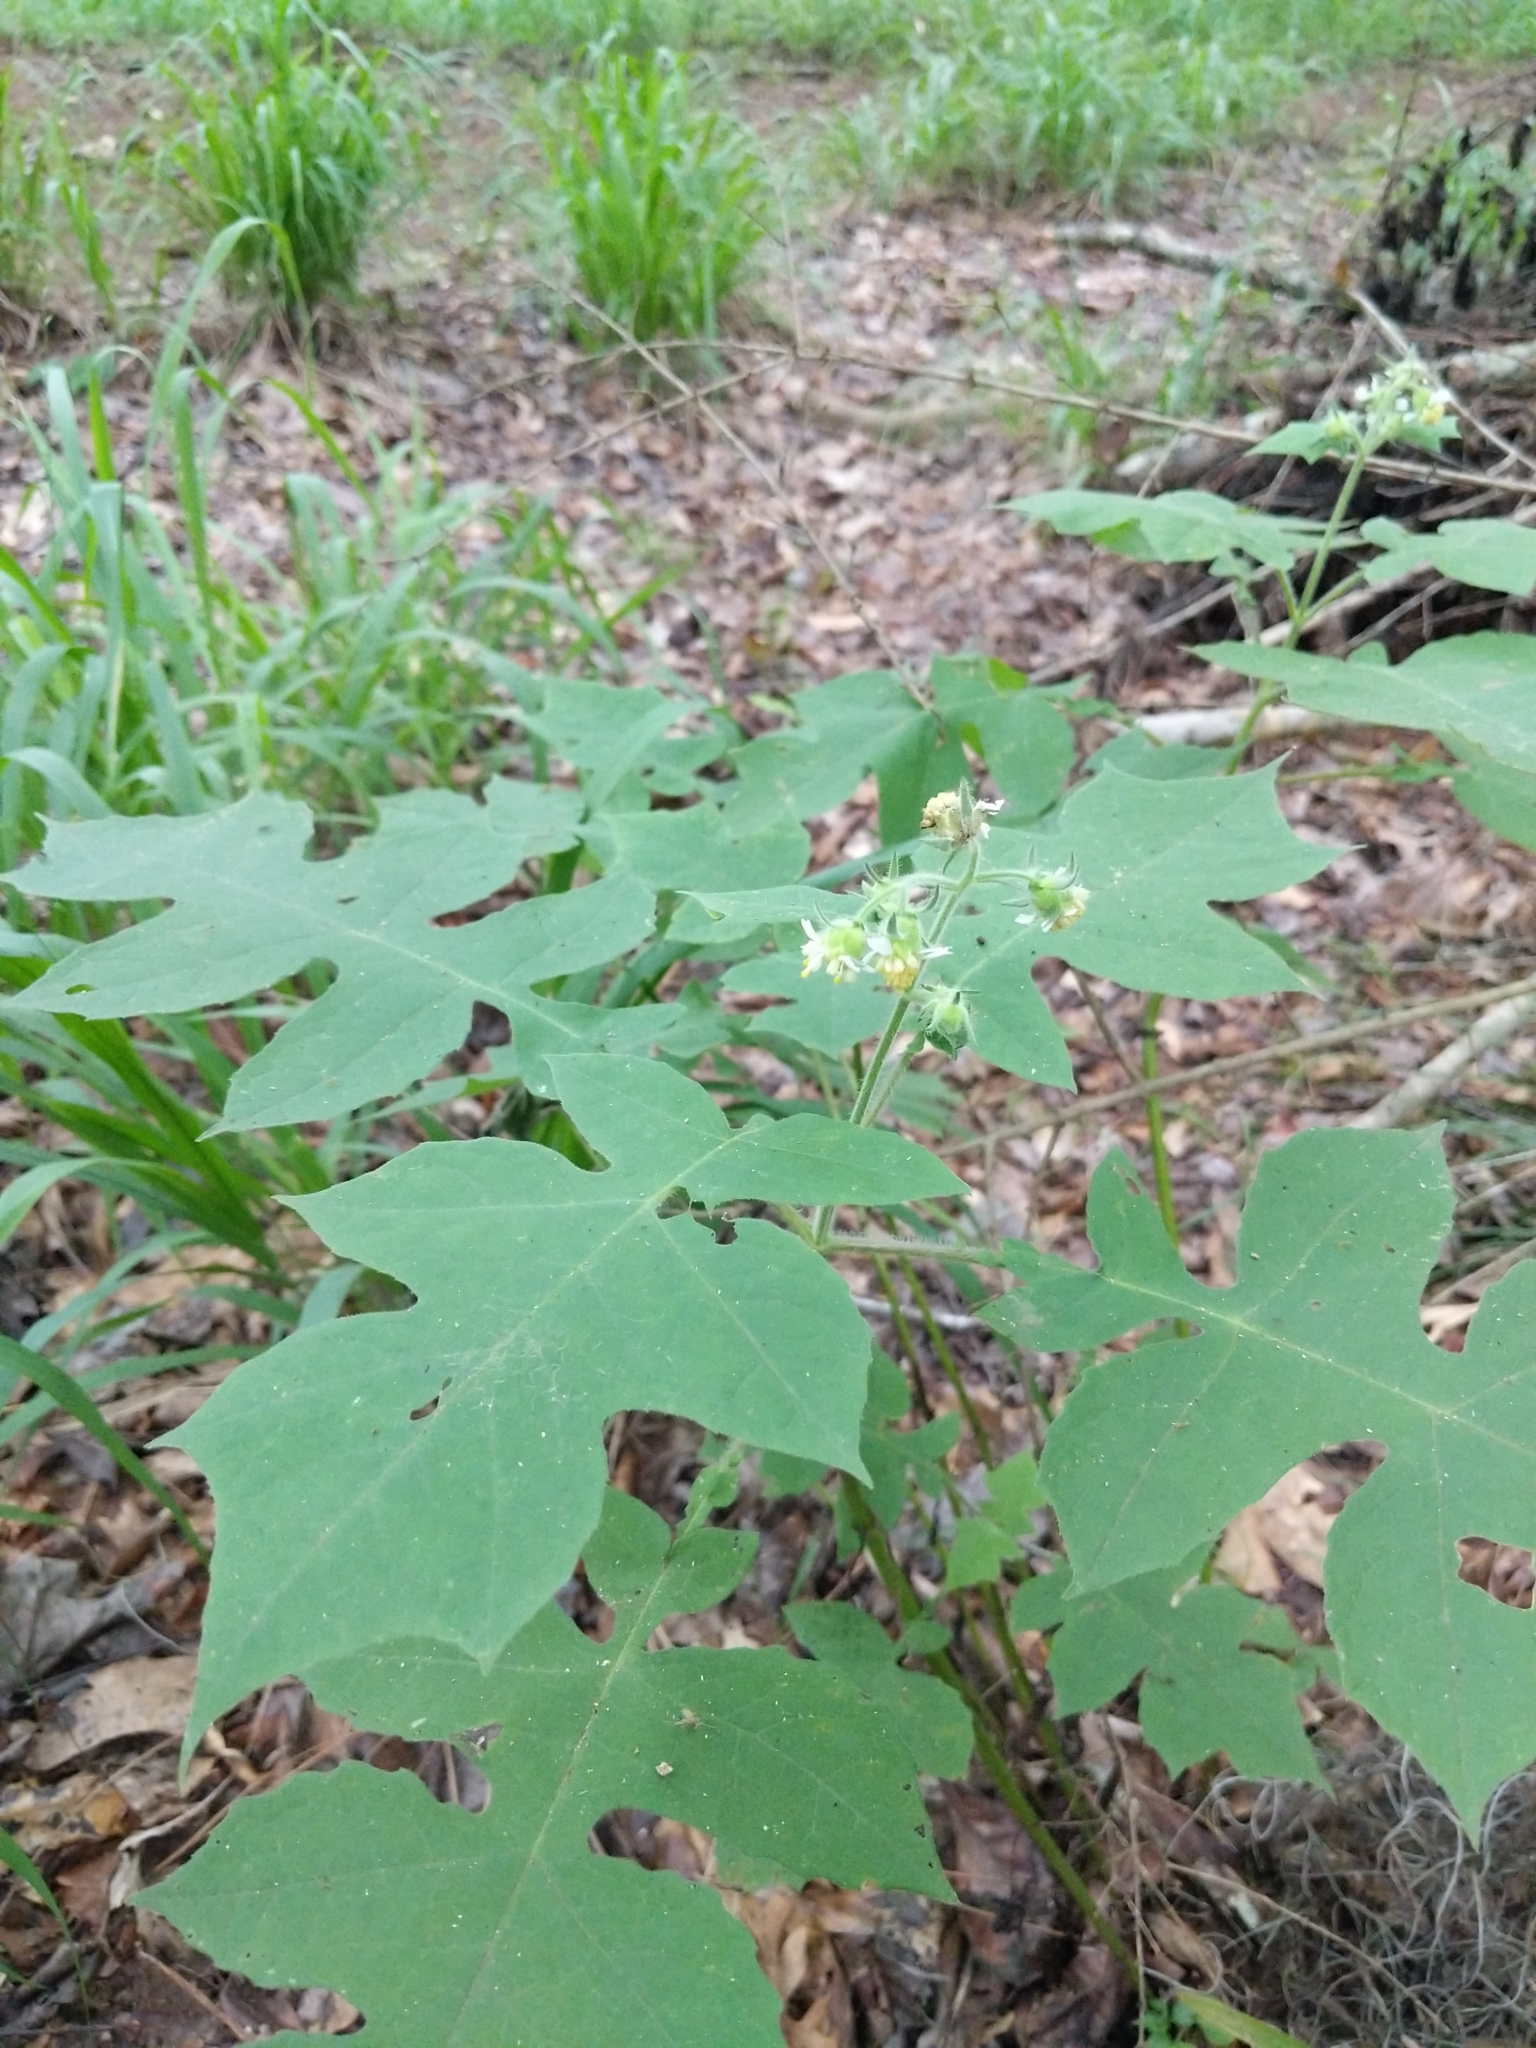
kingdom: Plantae
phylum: Tracheophyta
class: Magnoliopsida
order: Asterales
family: Asteraceae
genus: Polymnia
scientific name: Polymnia canadensis
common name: Pale-flowered leafcup
